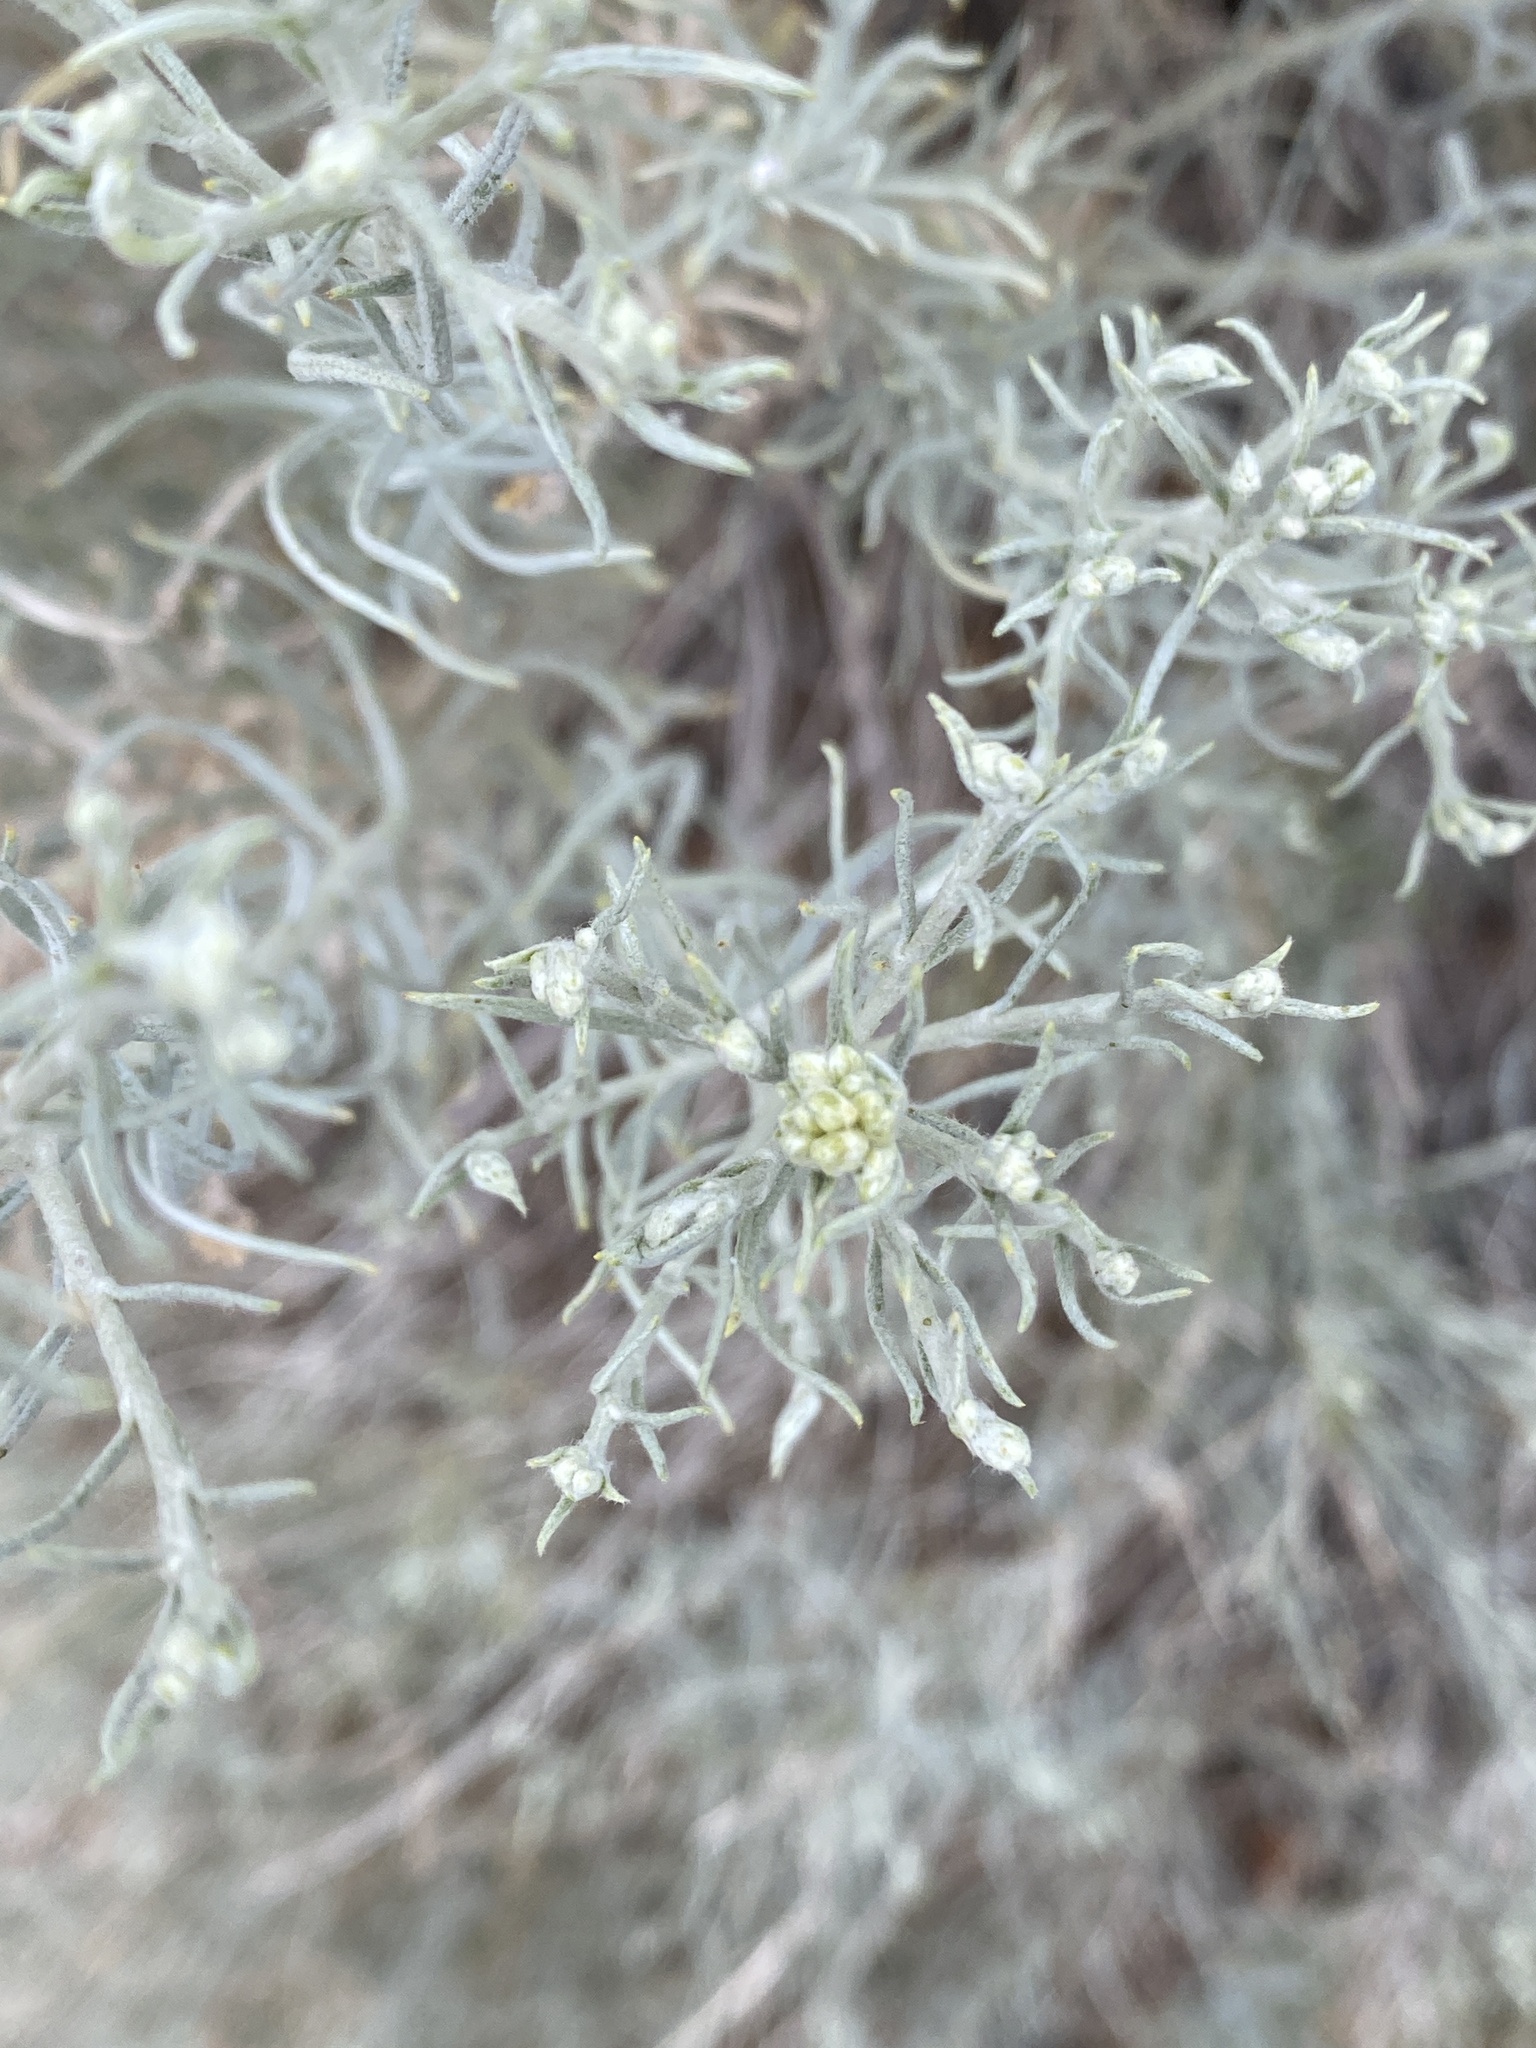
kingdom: Plantae
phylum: Tracheophyta
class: Magnoliopsida
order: Asterales
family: Asteraceae
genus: Ericameria
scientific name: Ericameria nauseosa
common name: Rubber rabbitbrush
